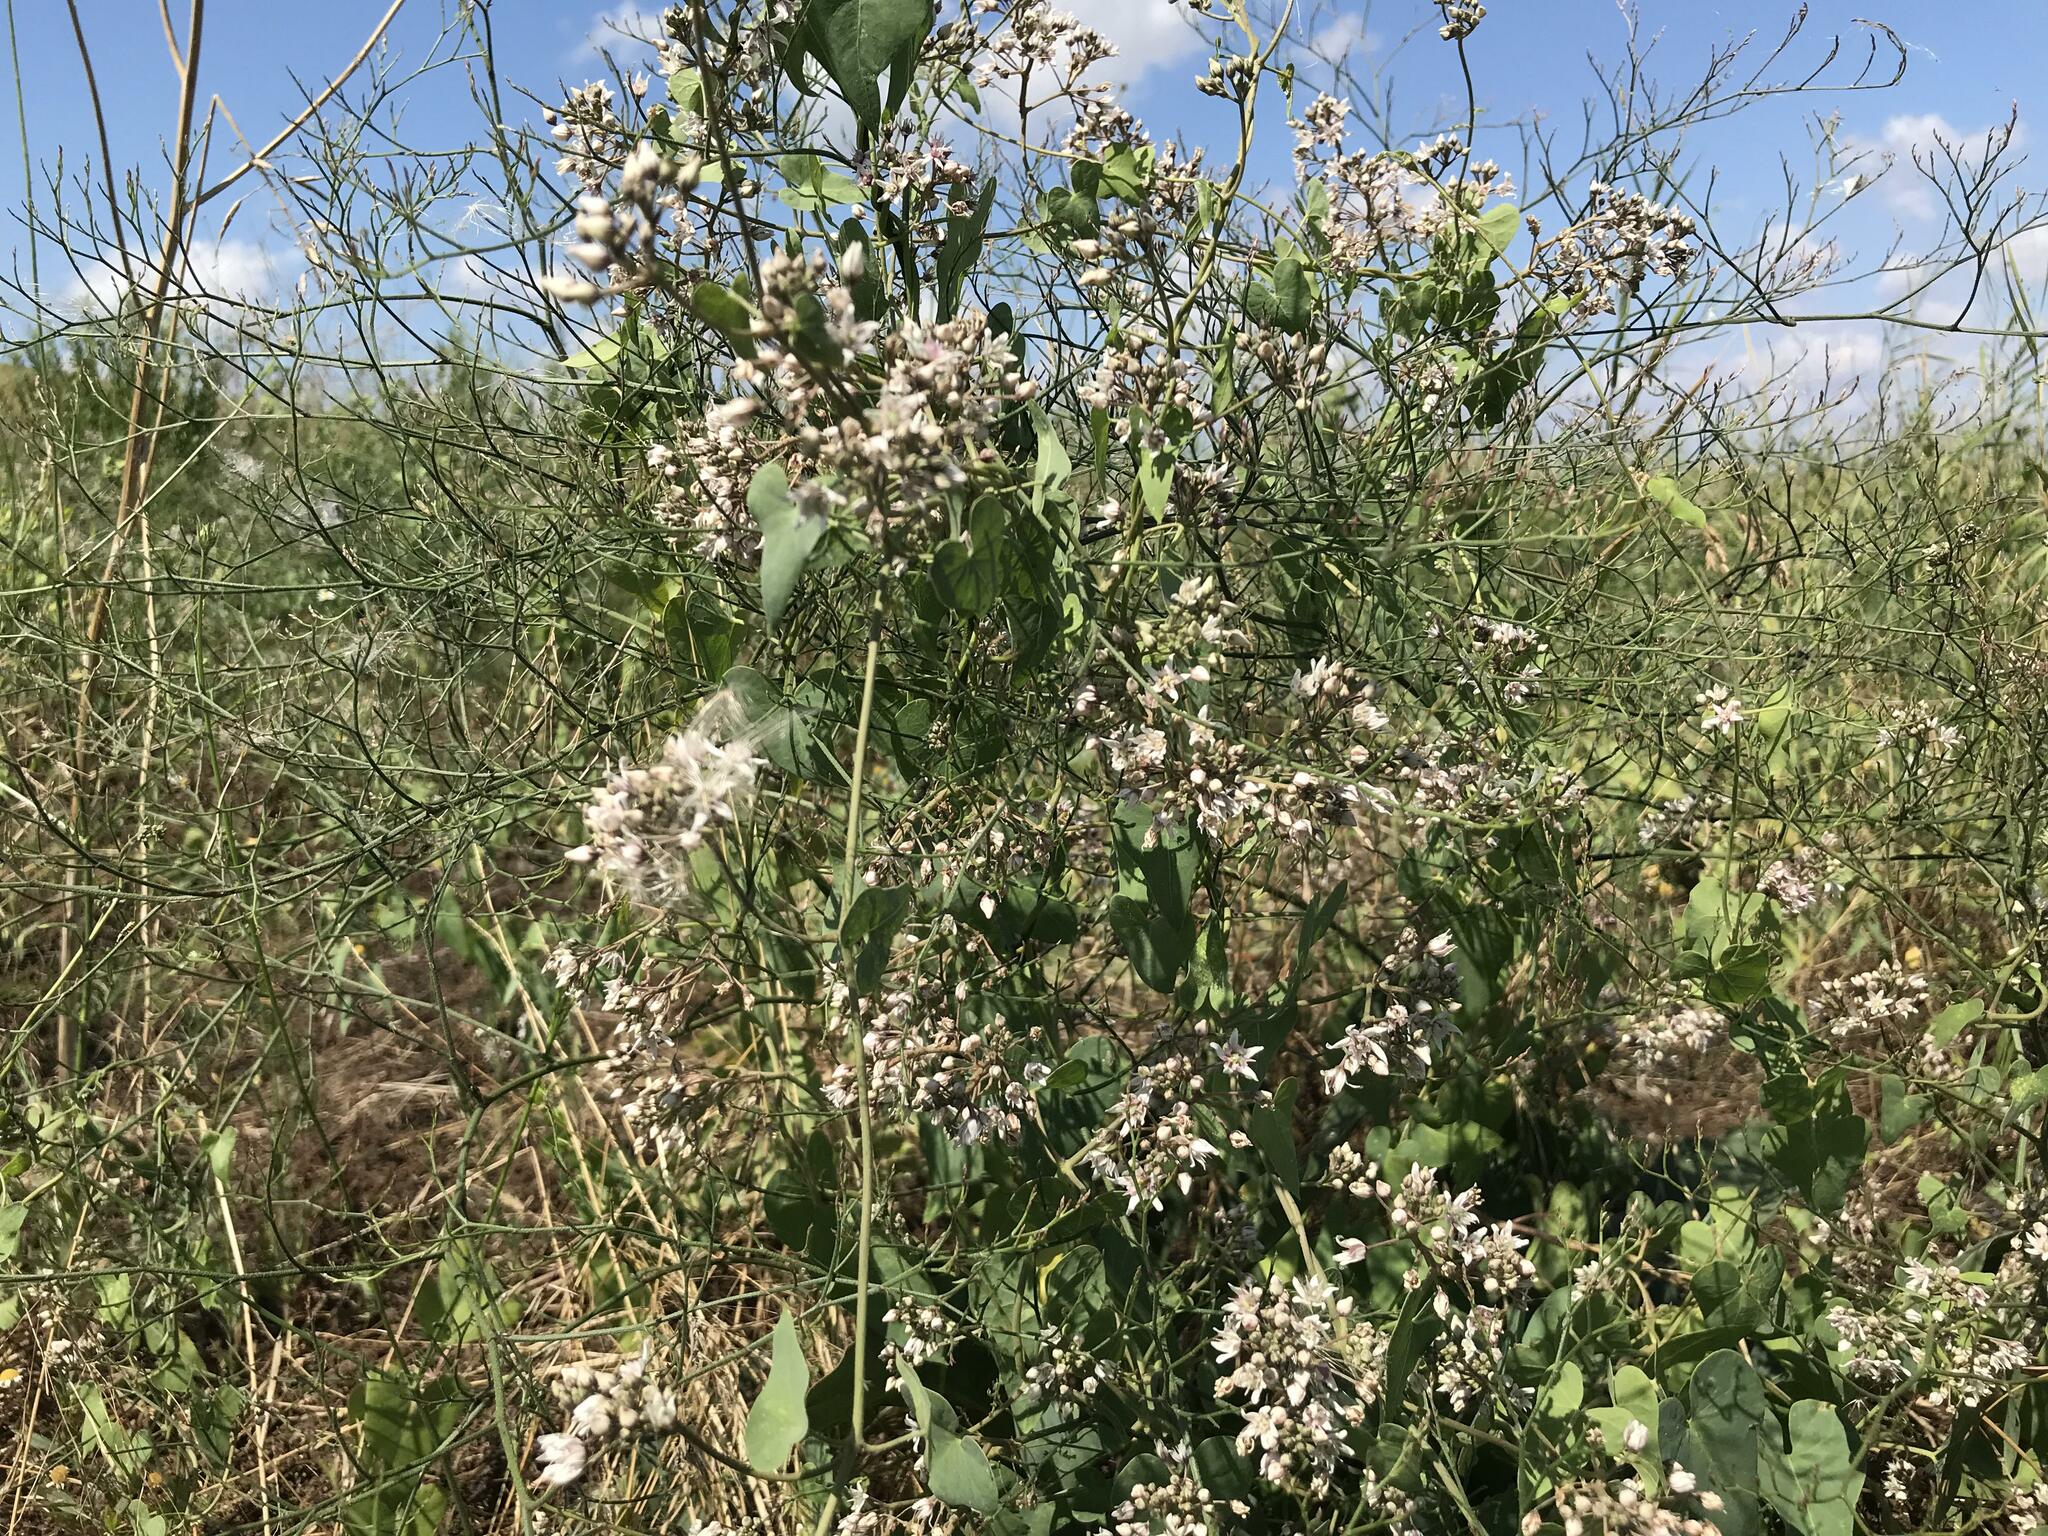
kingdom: Plantae
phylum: Tracheophyta
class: Magnoliopsida
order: Gentianales
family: Apocynaceae
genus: Cynanchum
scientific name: Cynanchum acutum
